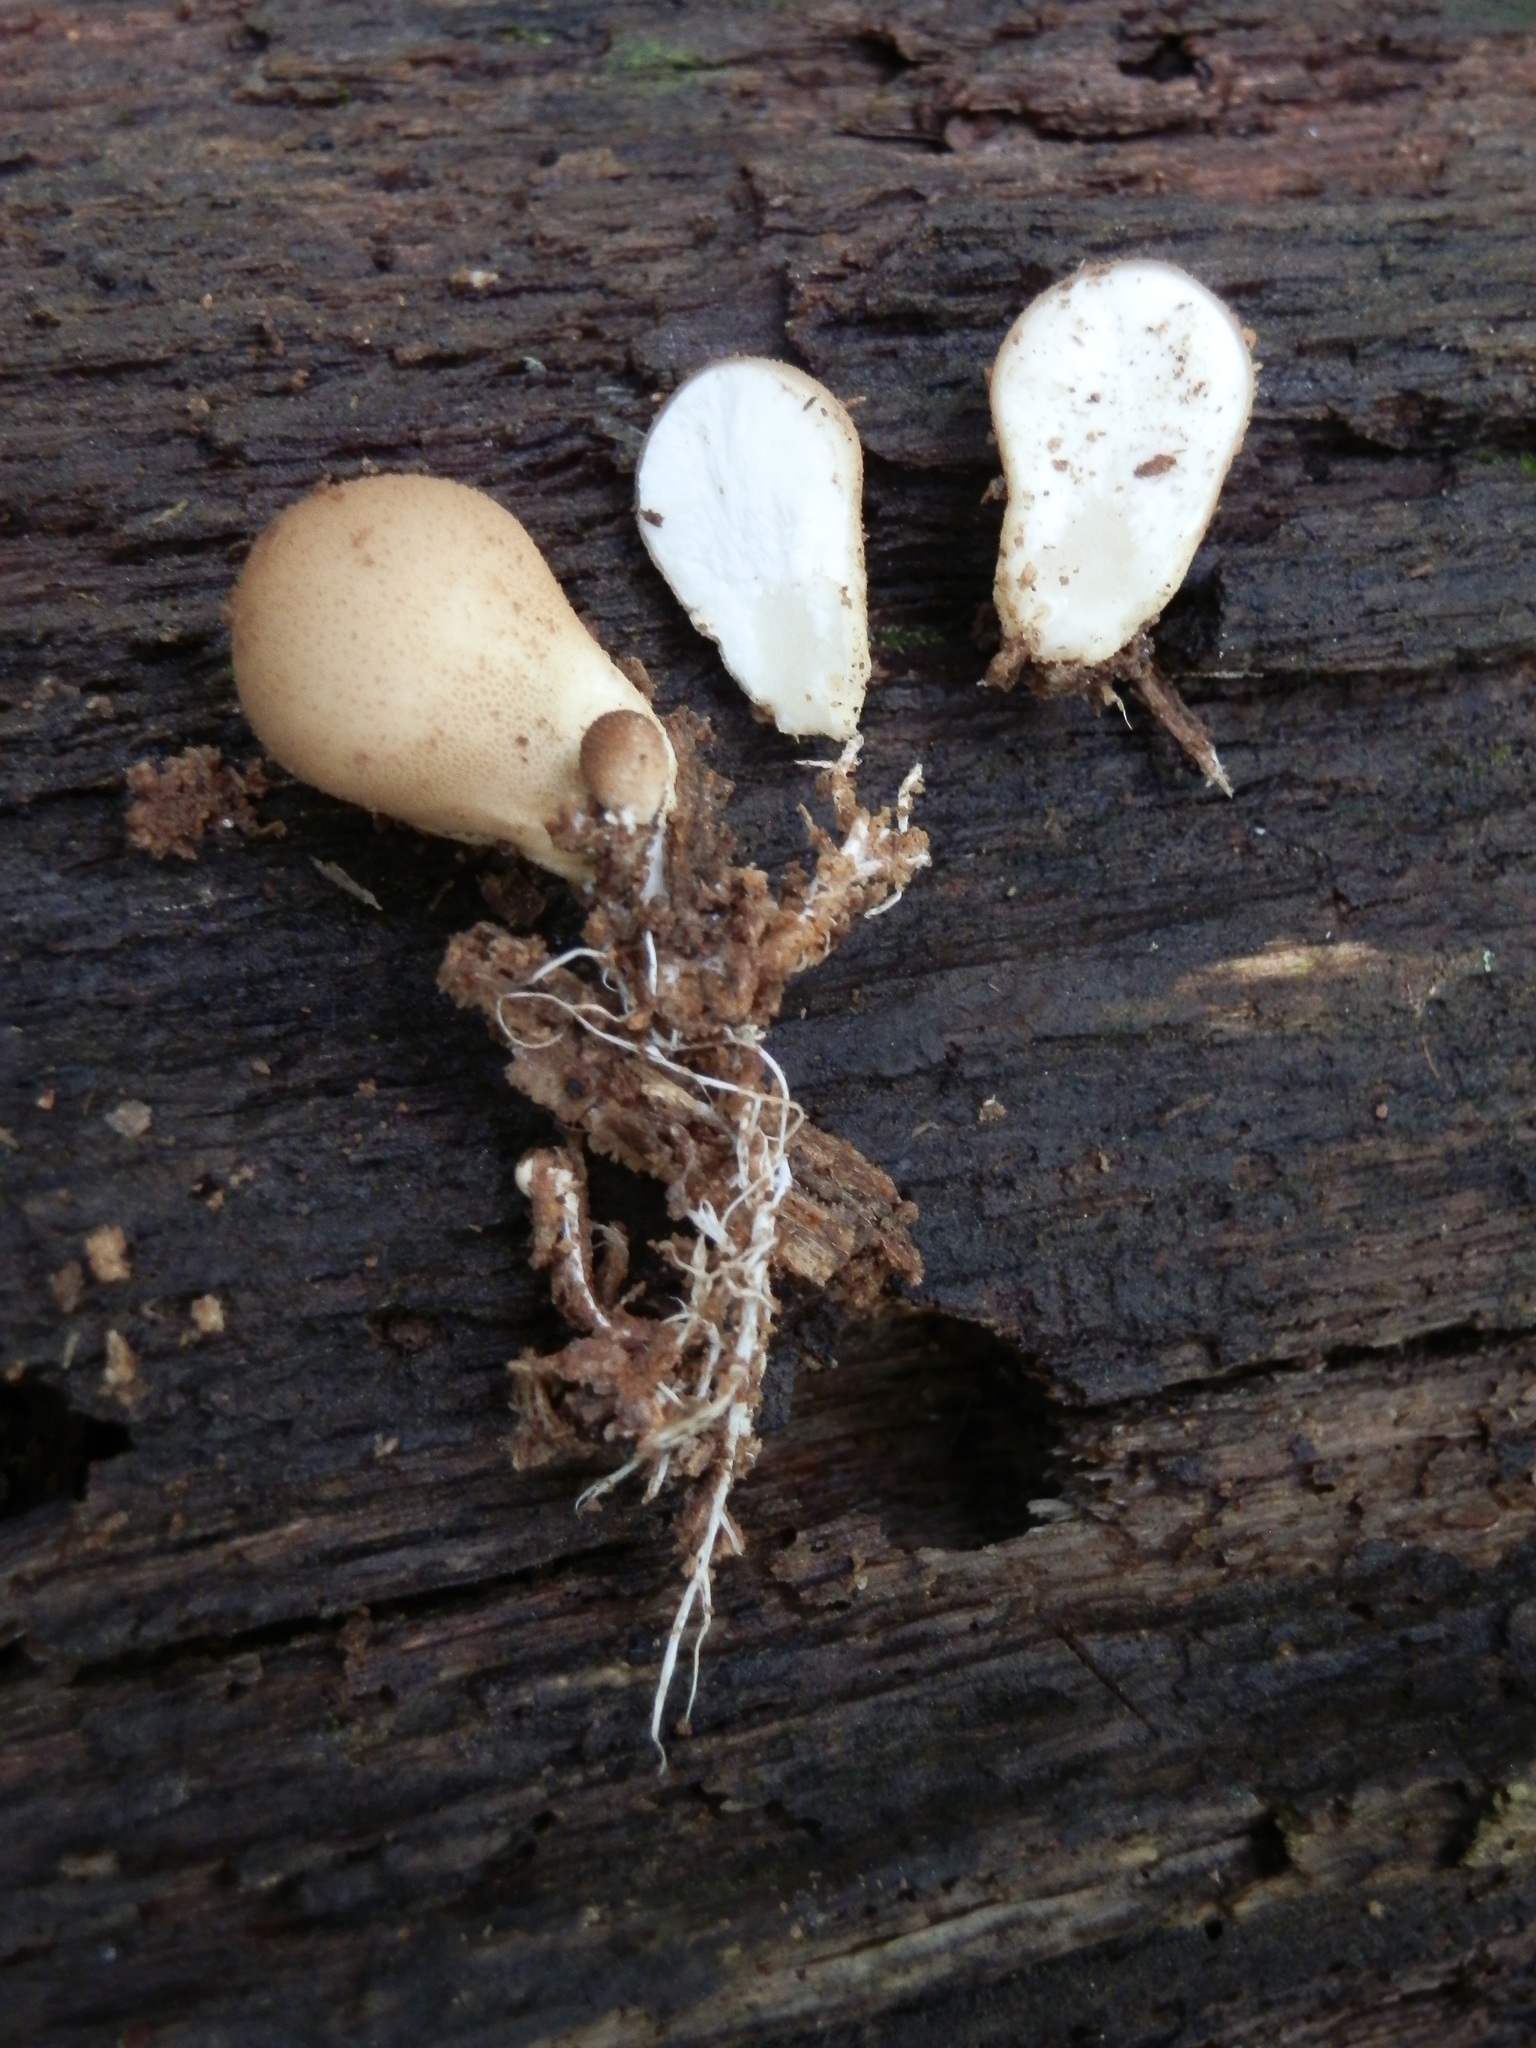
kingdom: Fungi
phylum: Basidiomycota
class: Agaricomycetes
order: Agaricales
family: Lycoperdaceae
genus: Apioperdon
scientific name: Apioperdon pyriforme
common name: Pear-shaped puffball
